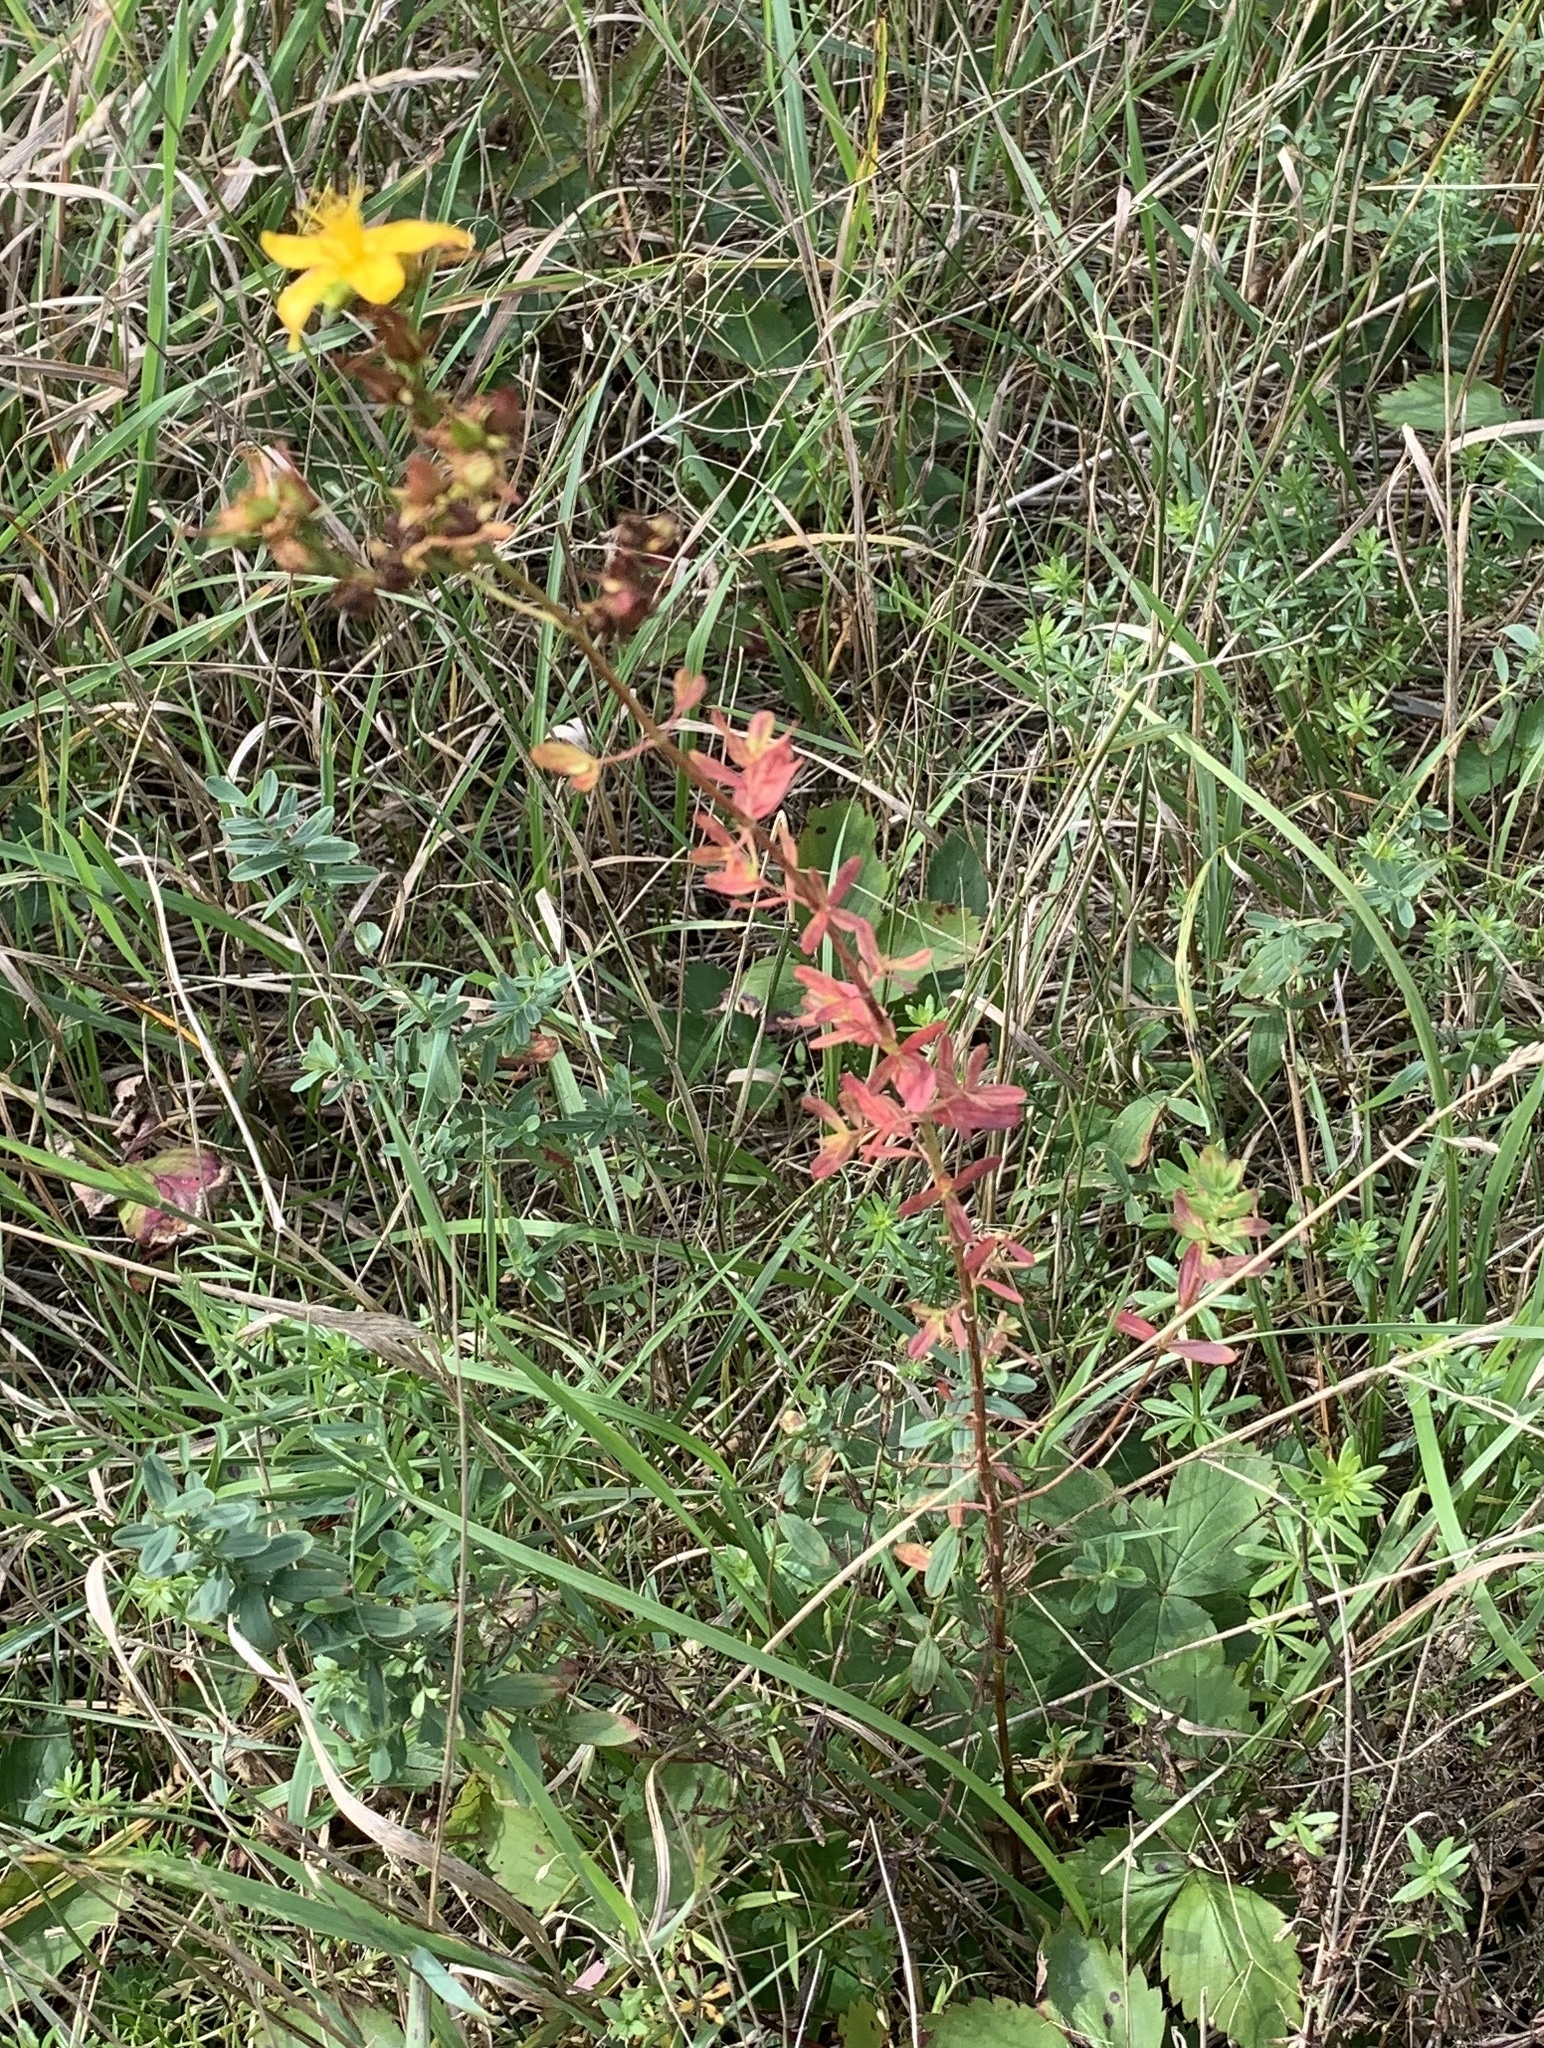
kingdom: Plantae
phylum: Tracheophyta
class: Magnoliopsida
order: Malpighiales
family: Hypericaceae
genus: Hypericum
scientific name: Hypericum perforatum
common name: Common st. johnswort
